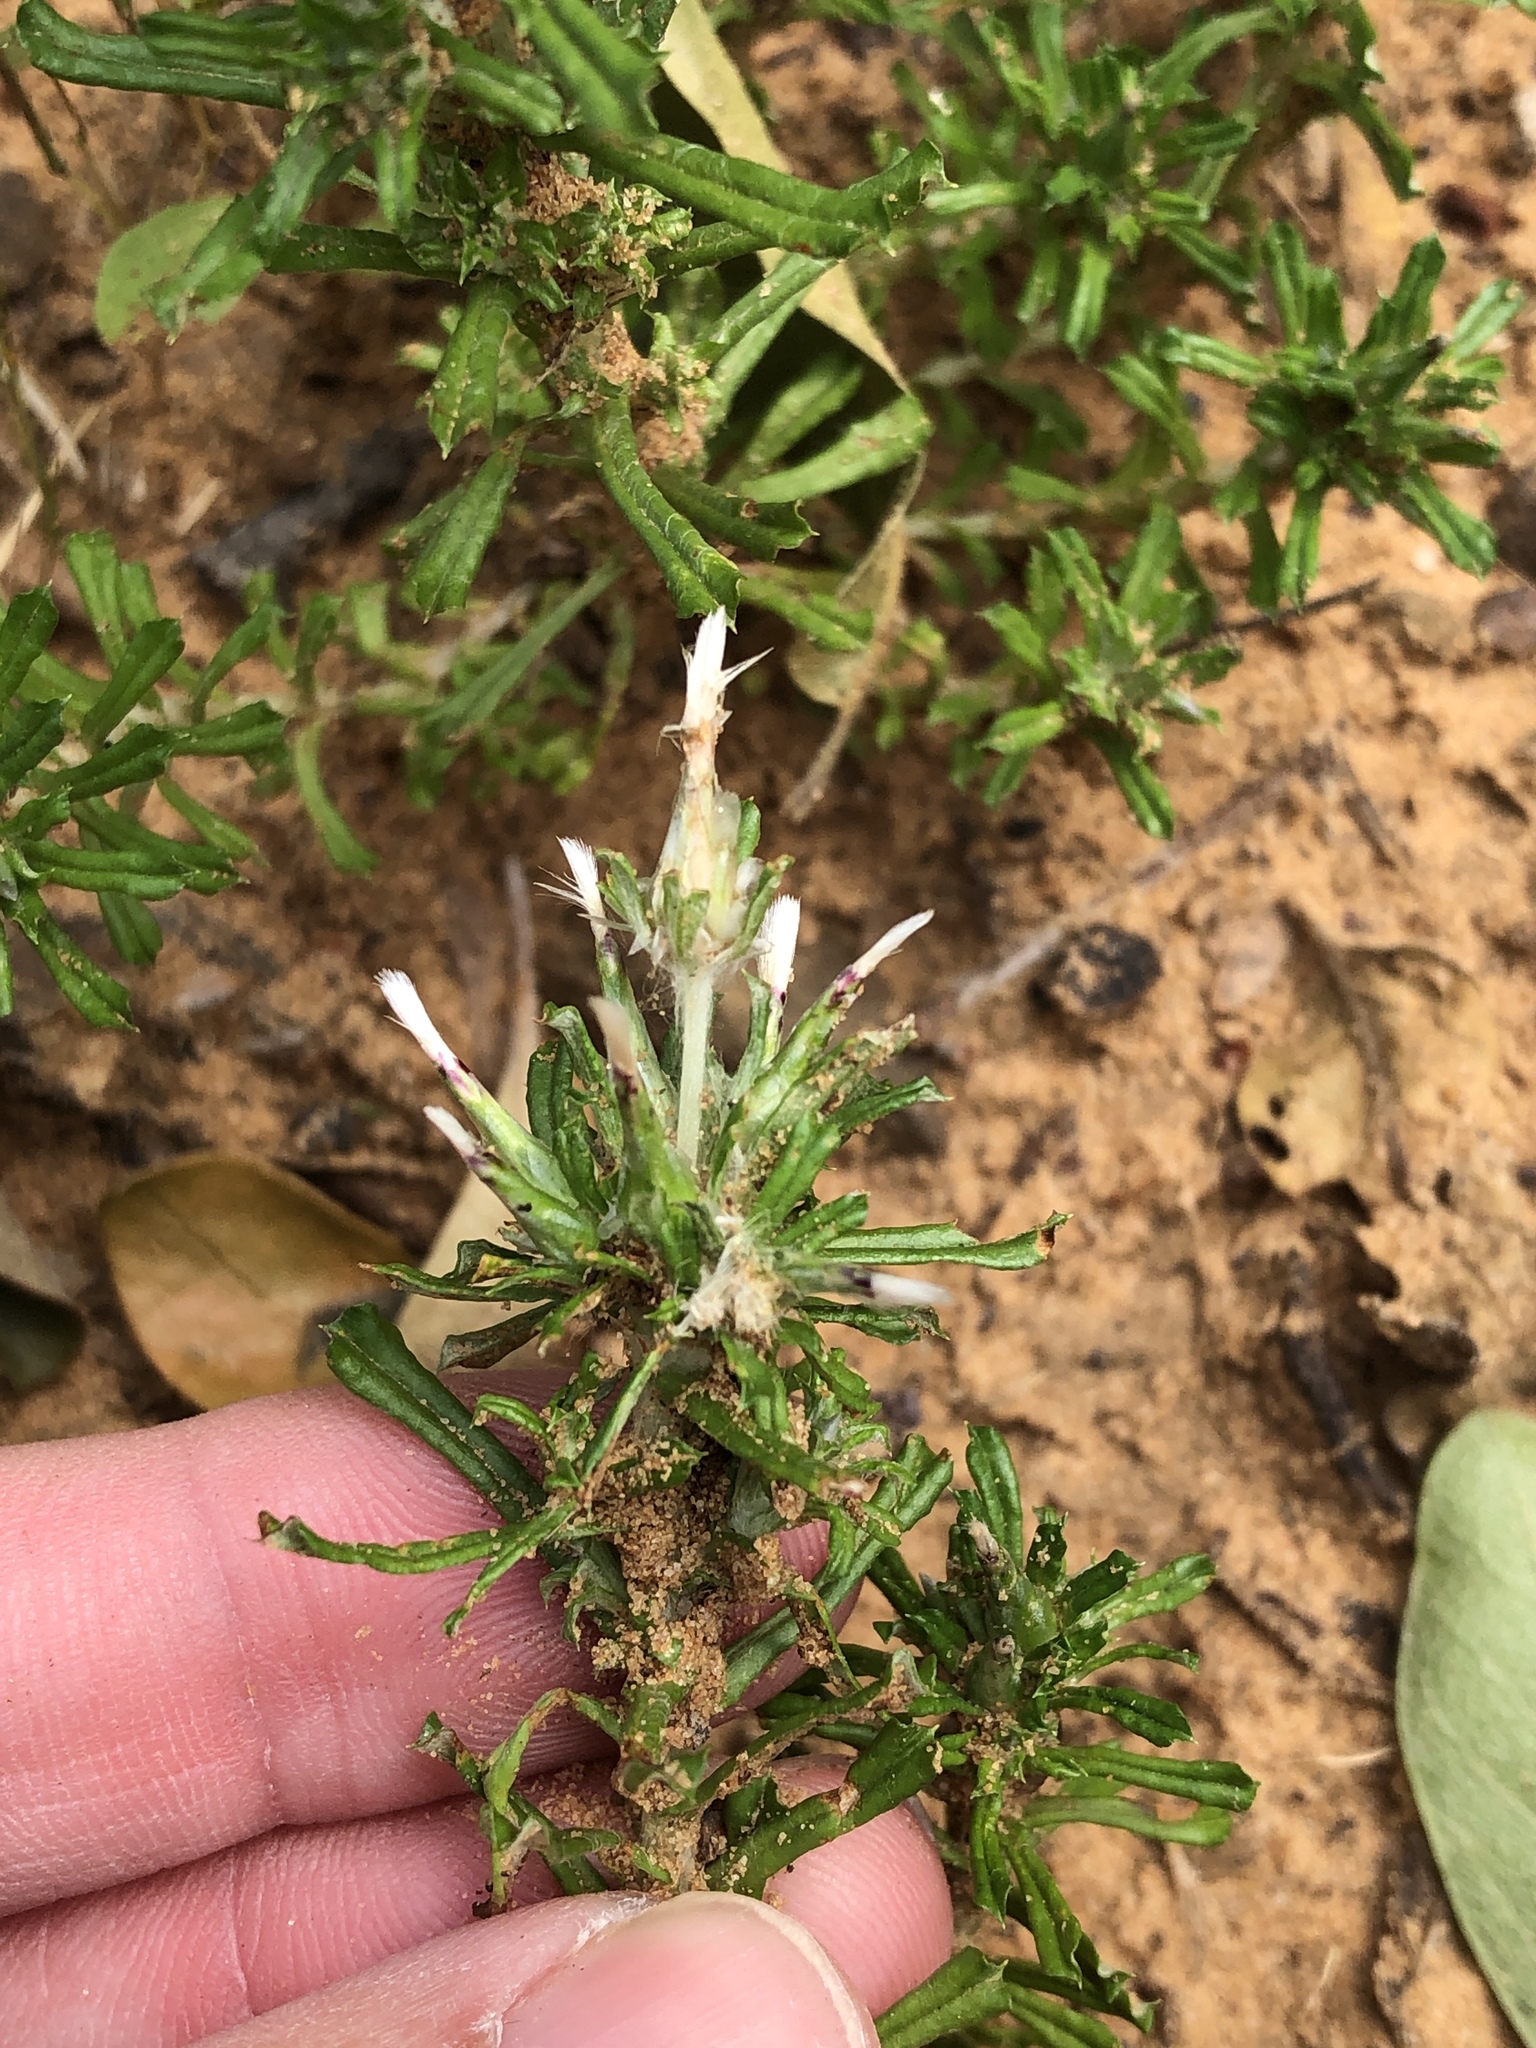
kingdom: Plantae
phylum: Tracheophyta
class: Magnoliopsida
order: Asterales
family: Asteraceae
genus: Facelis
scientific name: Facelis retusa
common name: Annual trampweed
